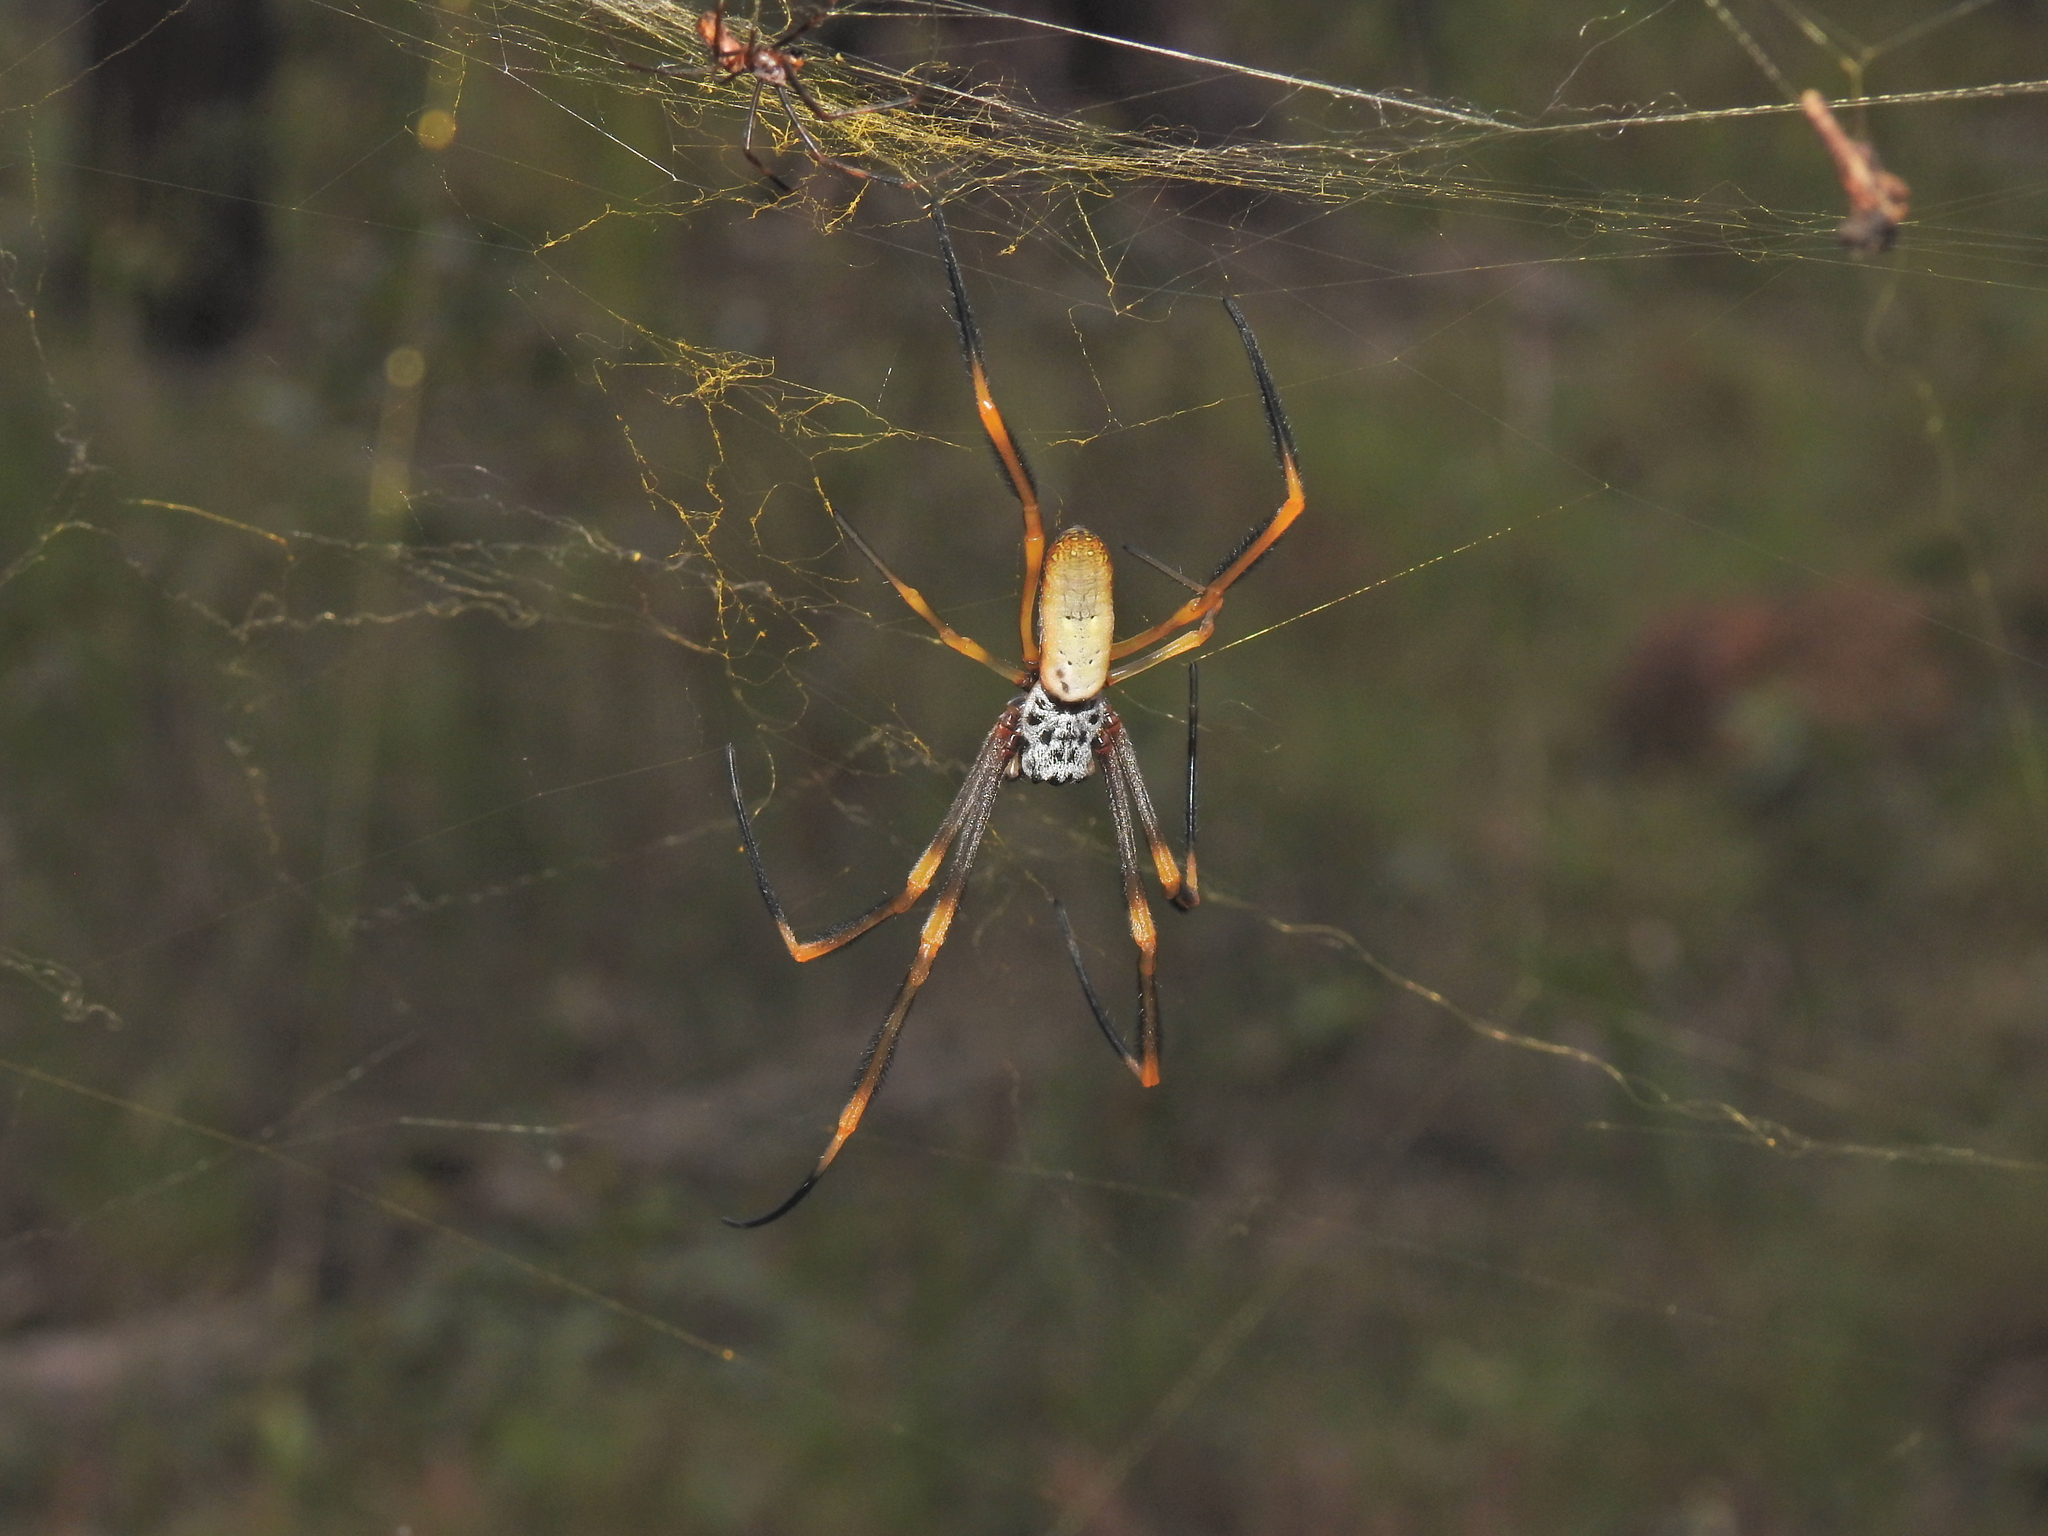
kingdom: Animalia
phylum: Arthropoda
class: Arachnida
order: Araneae
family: Araneidae
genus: Trichonephila
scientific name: Trichonephila plumipes
